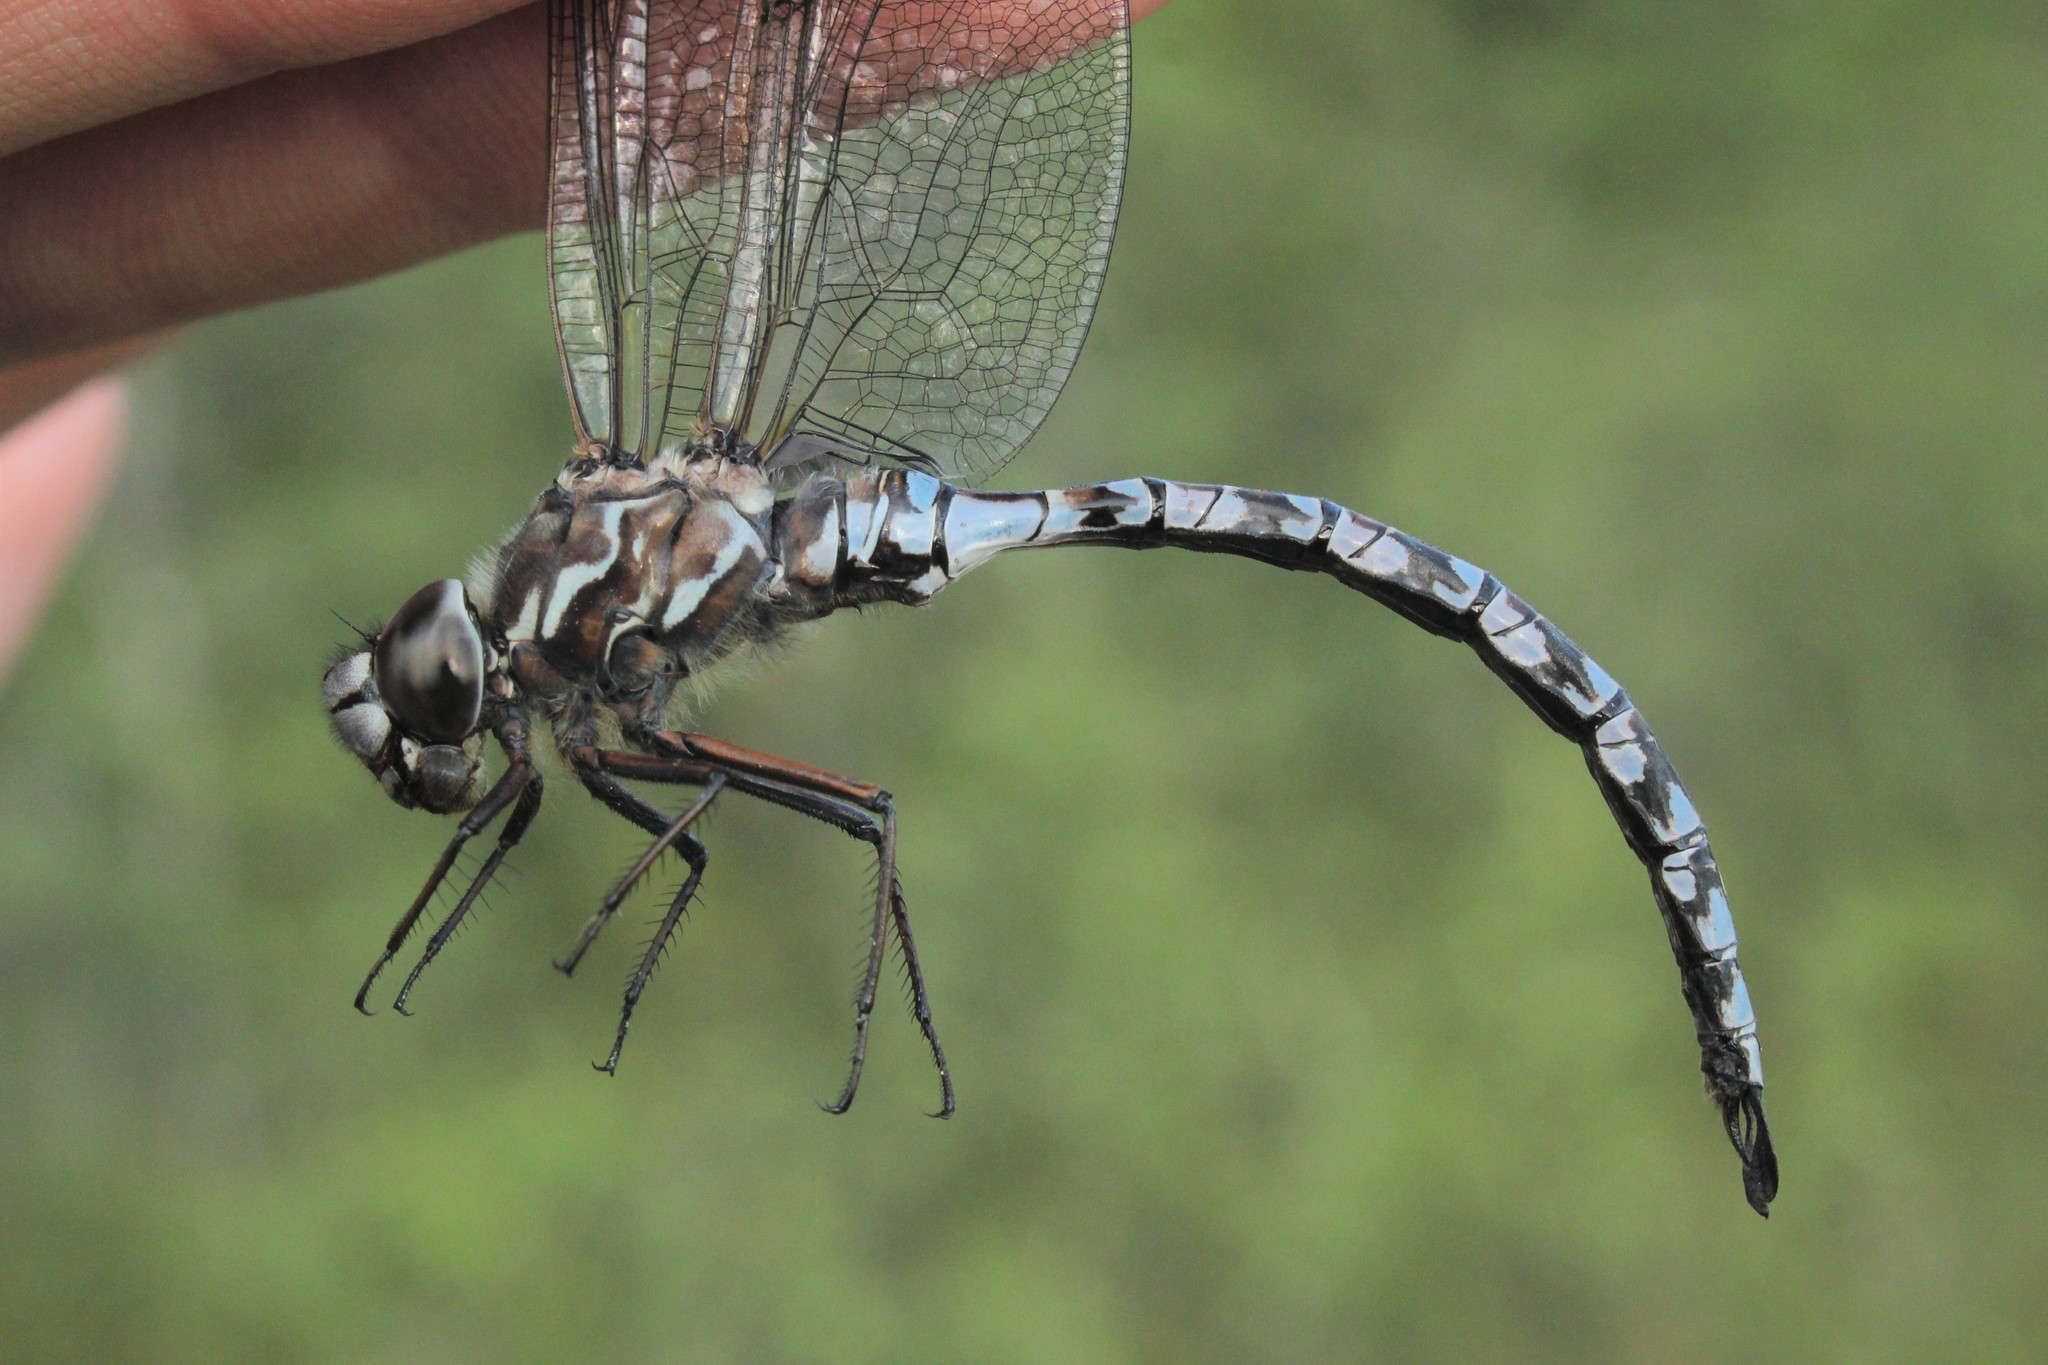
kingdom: Animalia
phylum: Arthropoda
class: Insecta
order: Odonata
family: Aeshnidae
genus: Aeshna
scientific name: Aeshna sitchensis
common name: Zigzag darner
